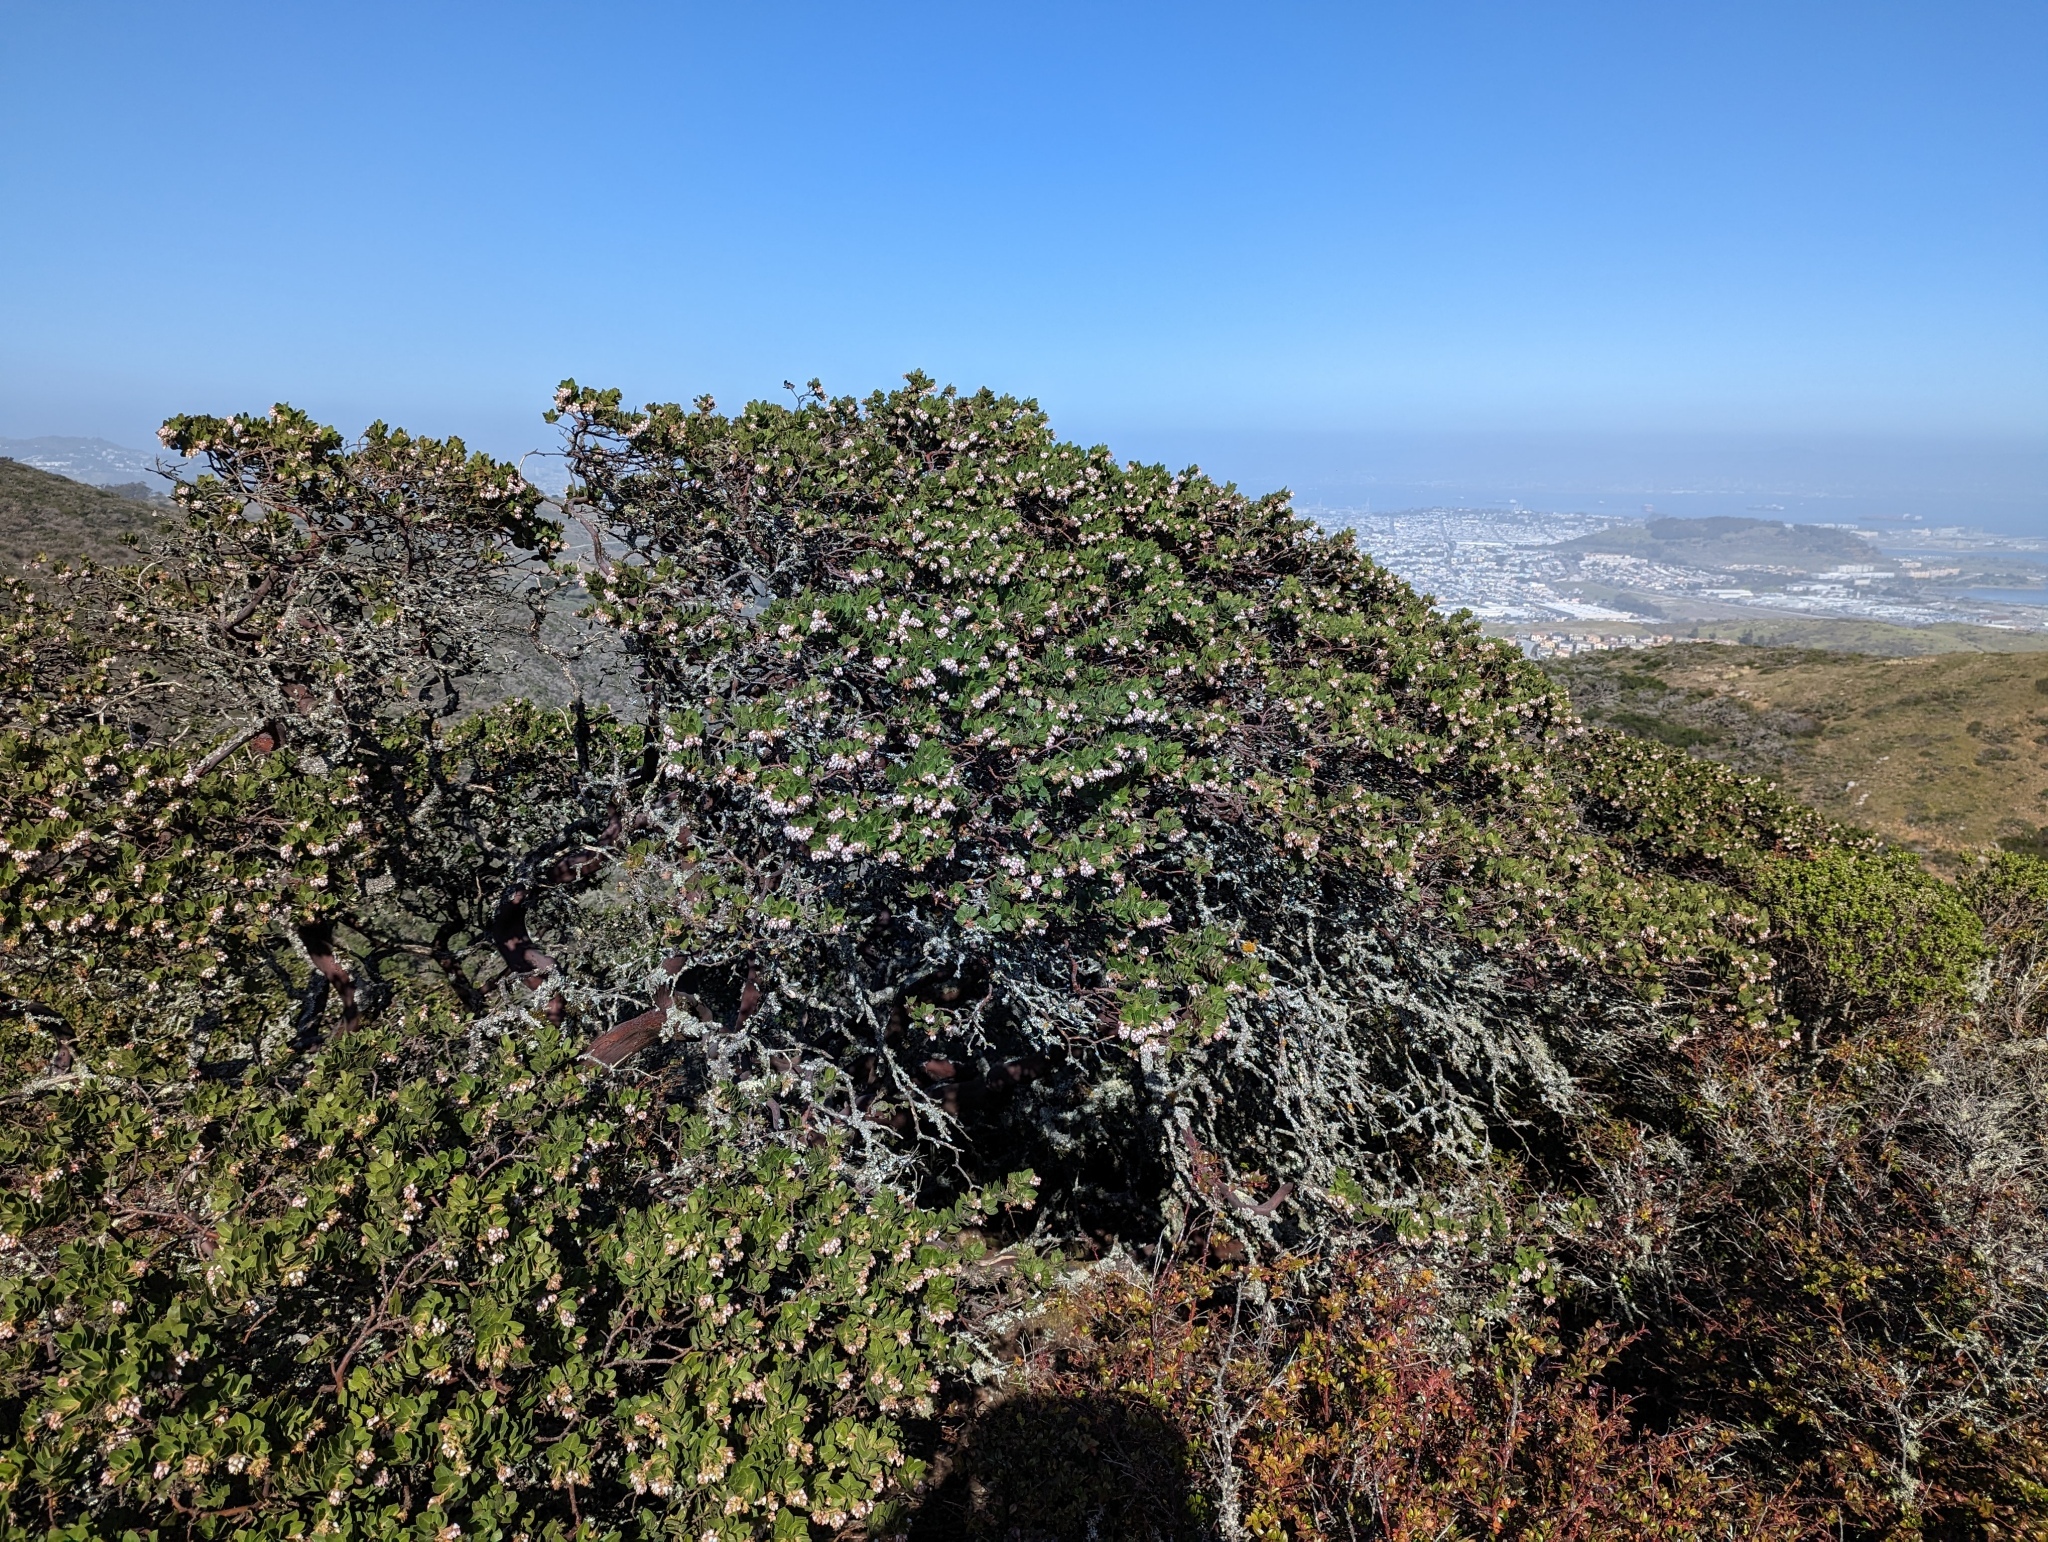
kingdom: Plantae
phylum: Tracheophyta
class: Magnoliopsida
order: Ericales
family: Ericaceae
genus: Arctostaphylos
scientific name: Arctostaphylos montaraensis
